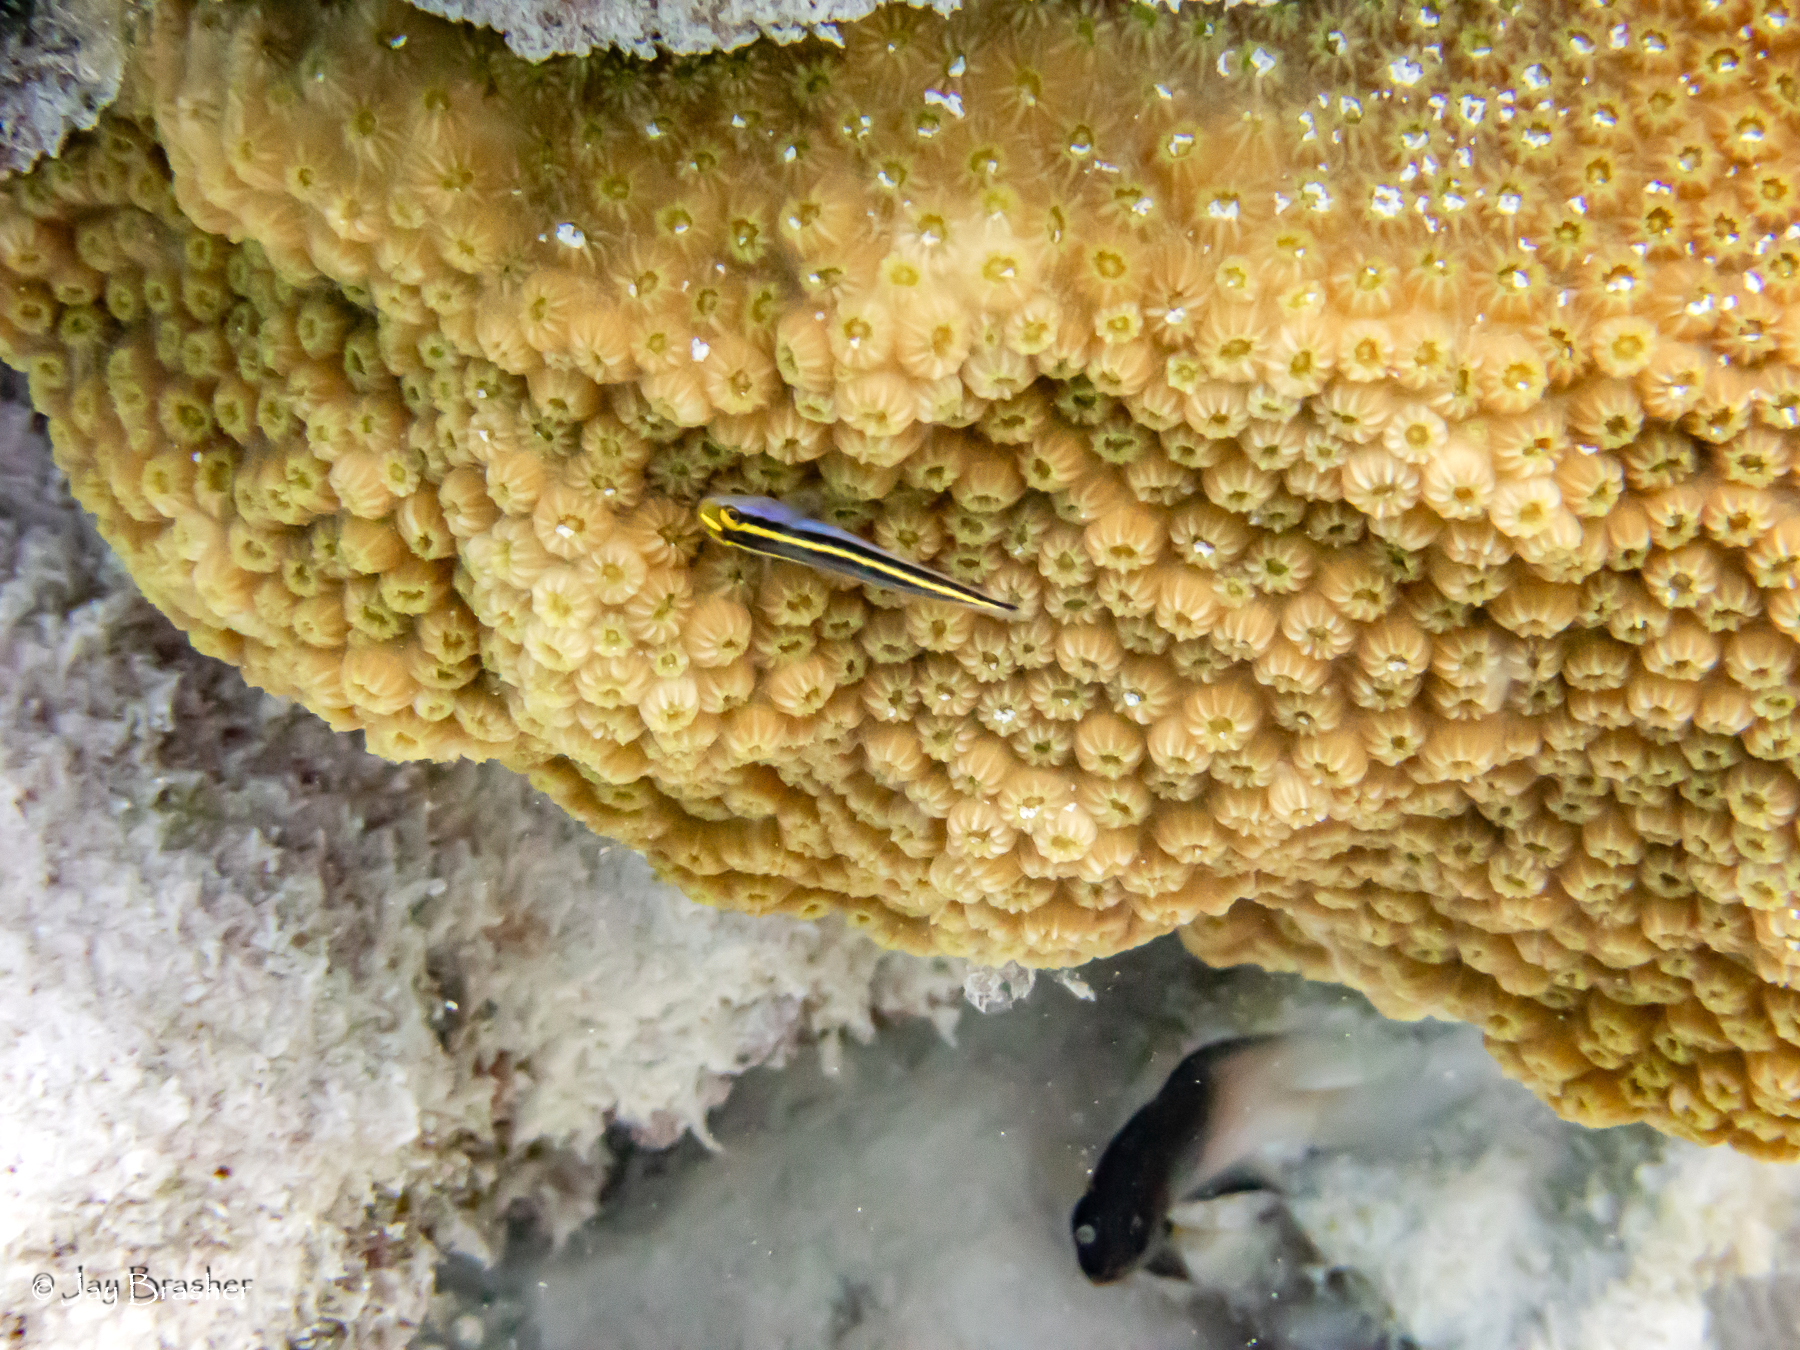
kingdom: Animalia
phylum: Chordata
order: Perciformes
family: Gobiidae
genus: Elacatinus
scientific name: Elacatinus randalli
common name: Yellownose goby
